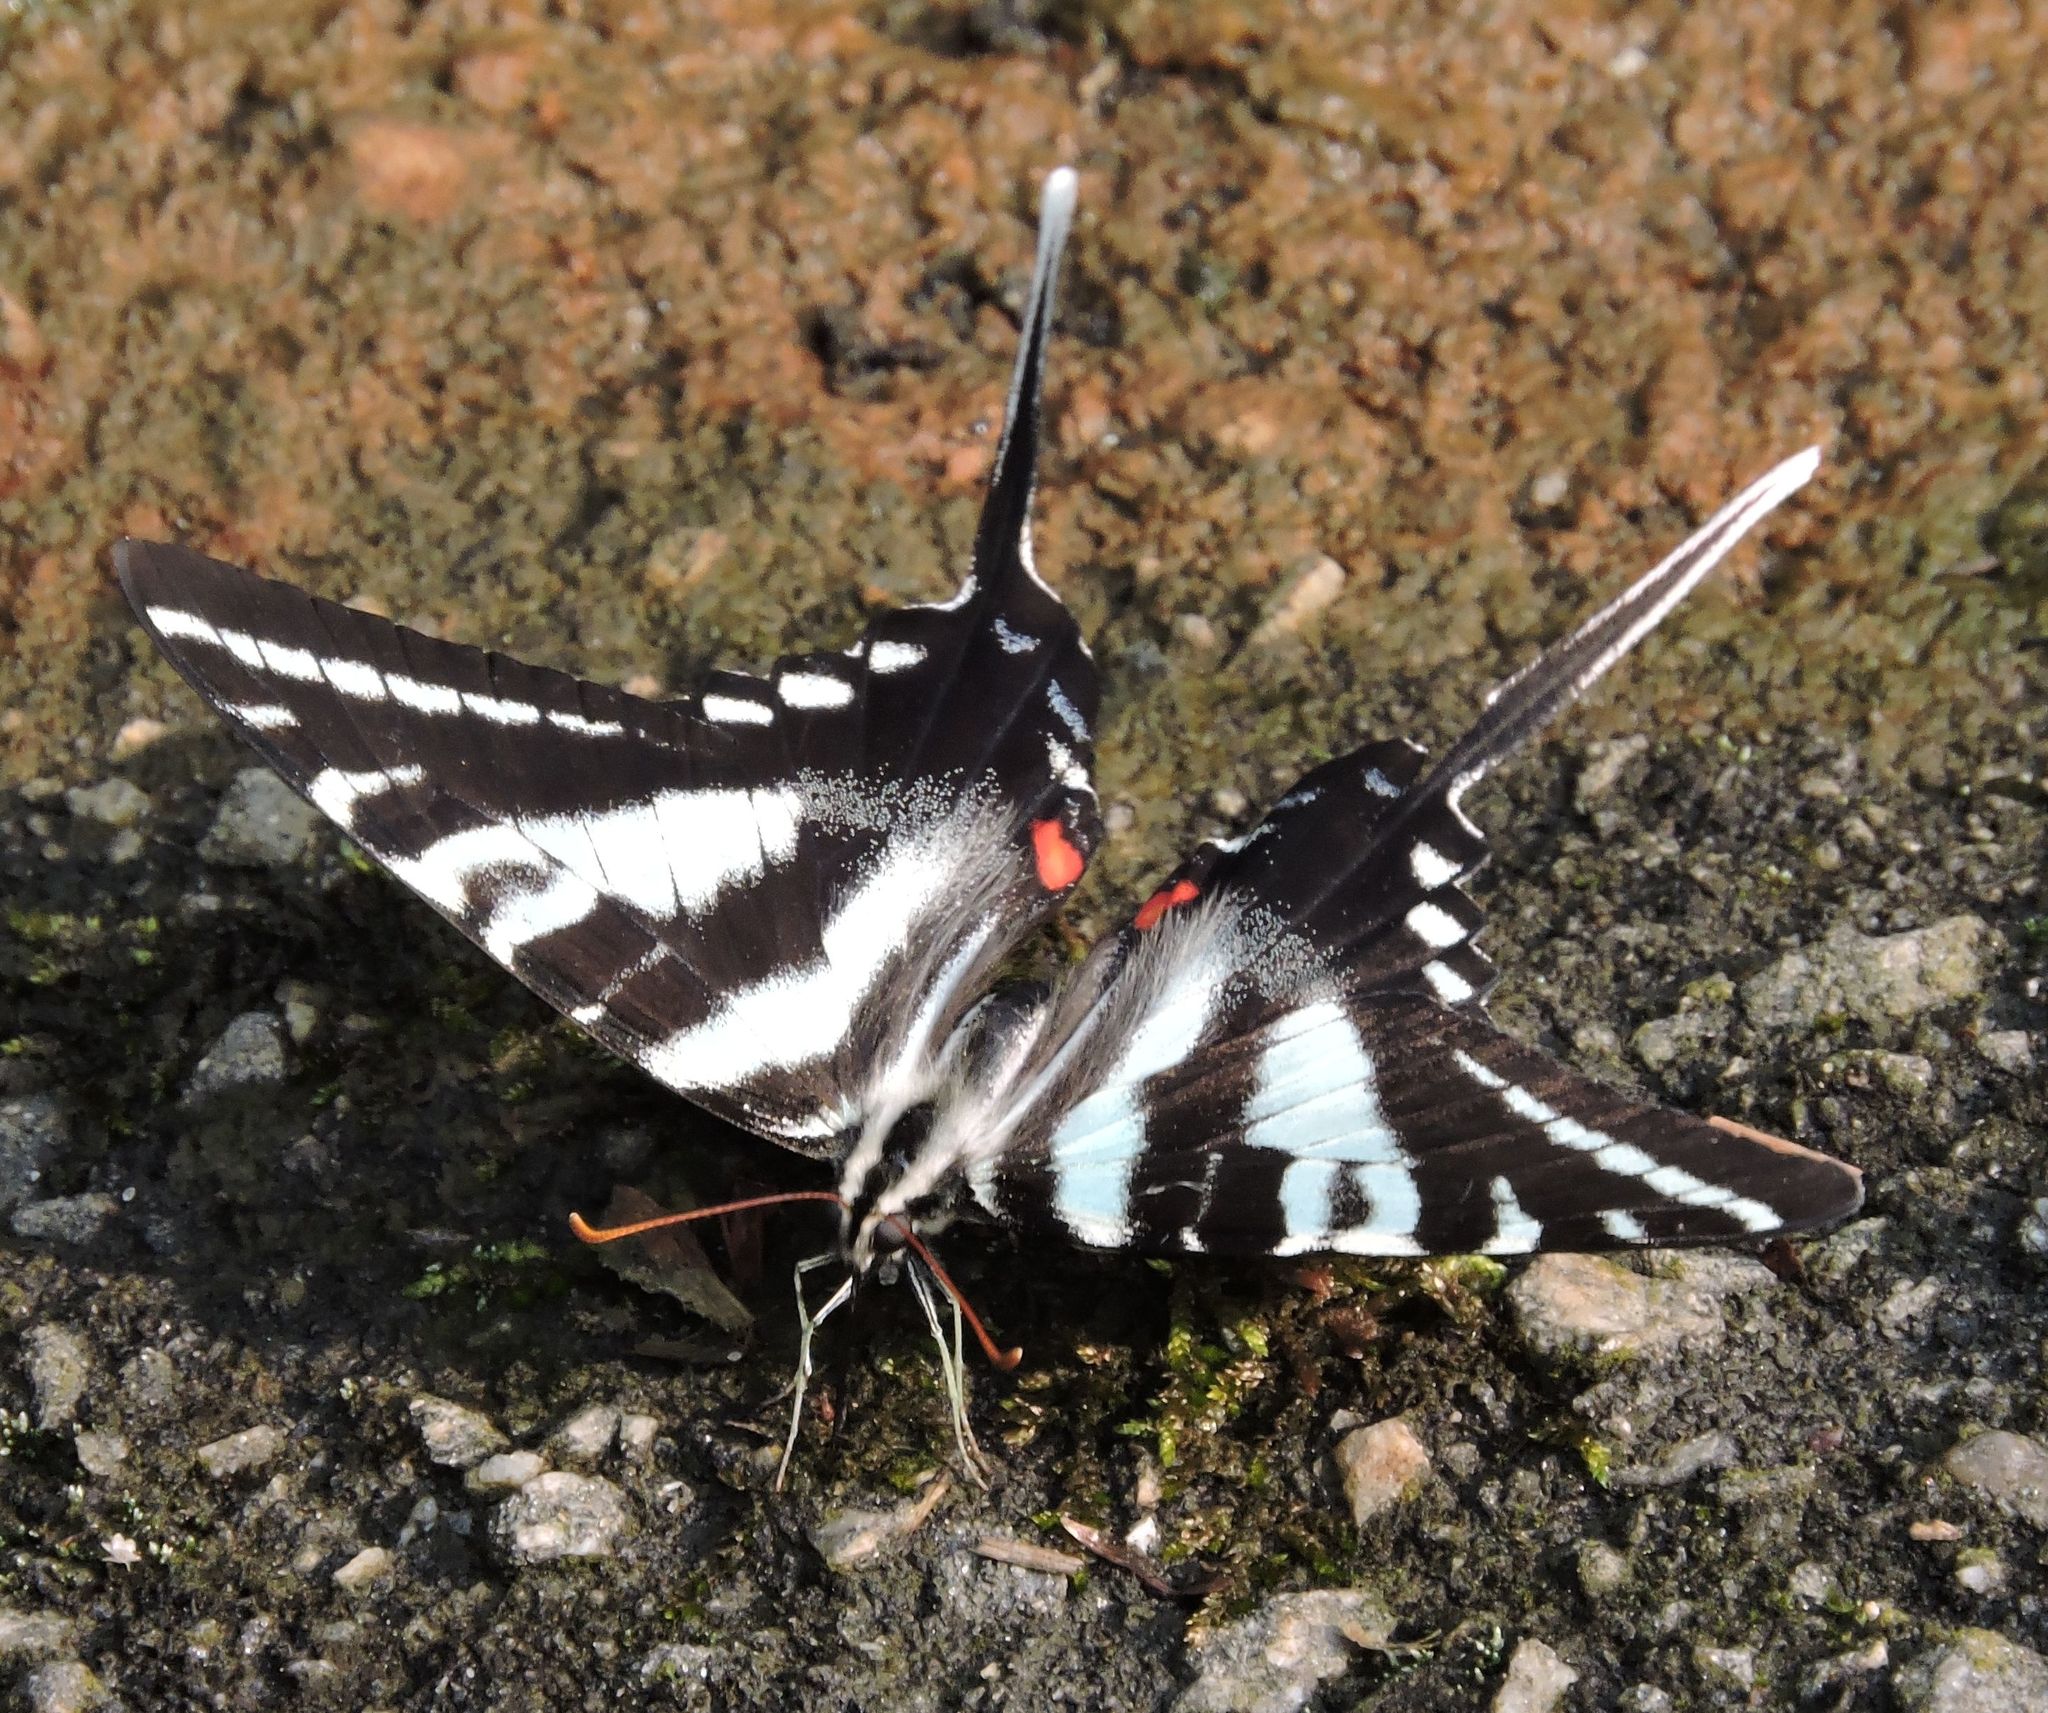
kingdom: Animalia
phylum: Arthropoda
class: Insecta
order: Lepidoptera
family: Papilionidae
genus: Protographium
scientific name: Protographium marcellus
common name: Zebra swallowtail
